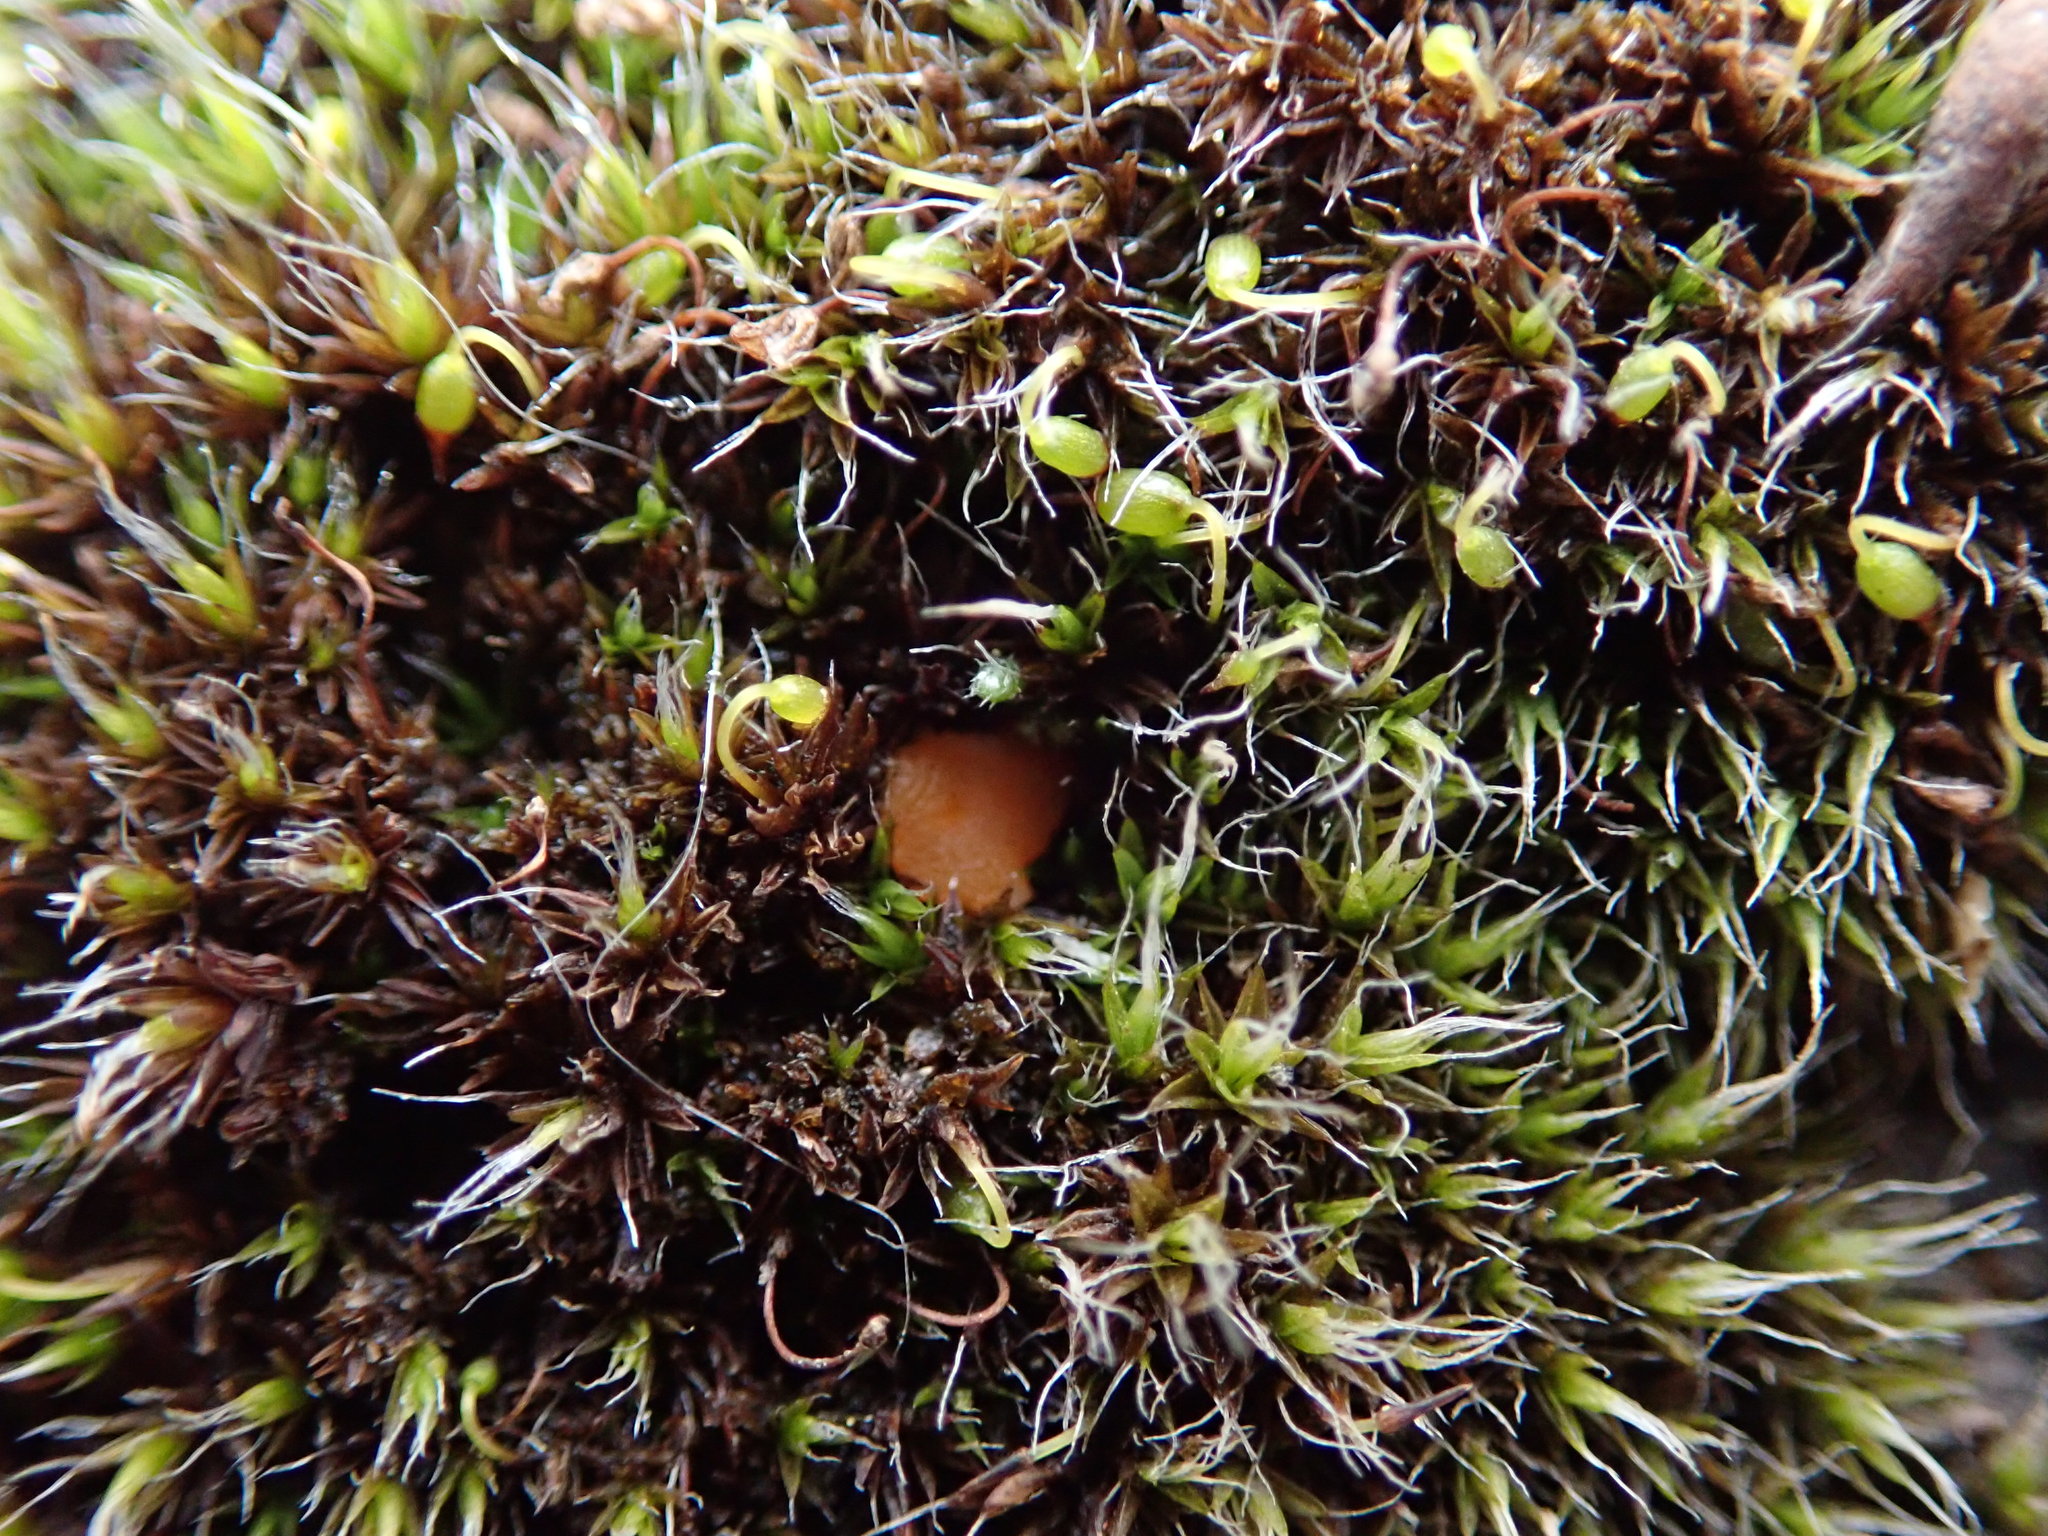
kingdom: Fungi
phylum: Ascomycota
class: Pezizomycetes
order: Pezizales
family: Pyronemataceae
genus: Octospora
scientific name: Octospora musci-muralis
